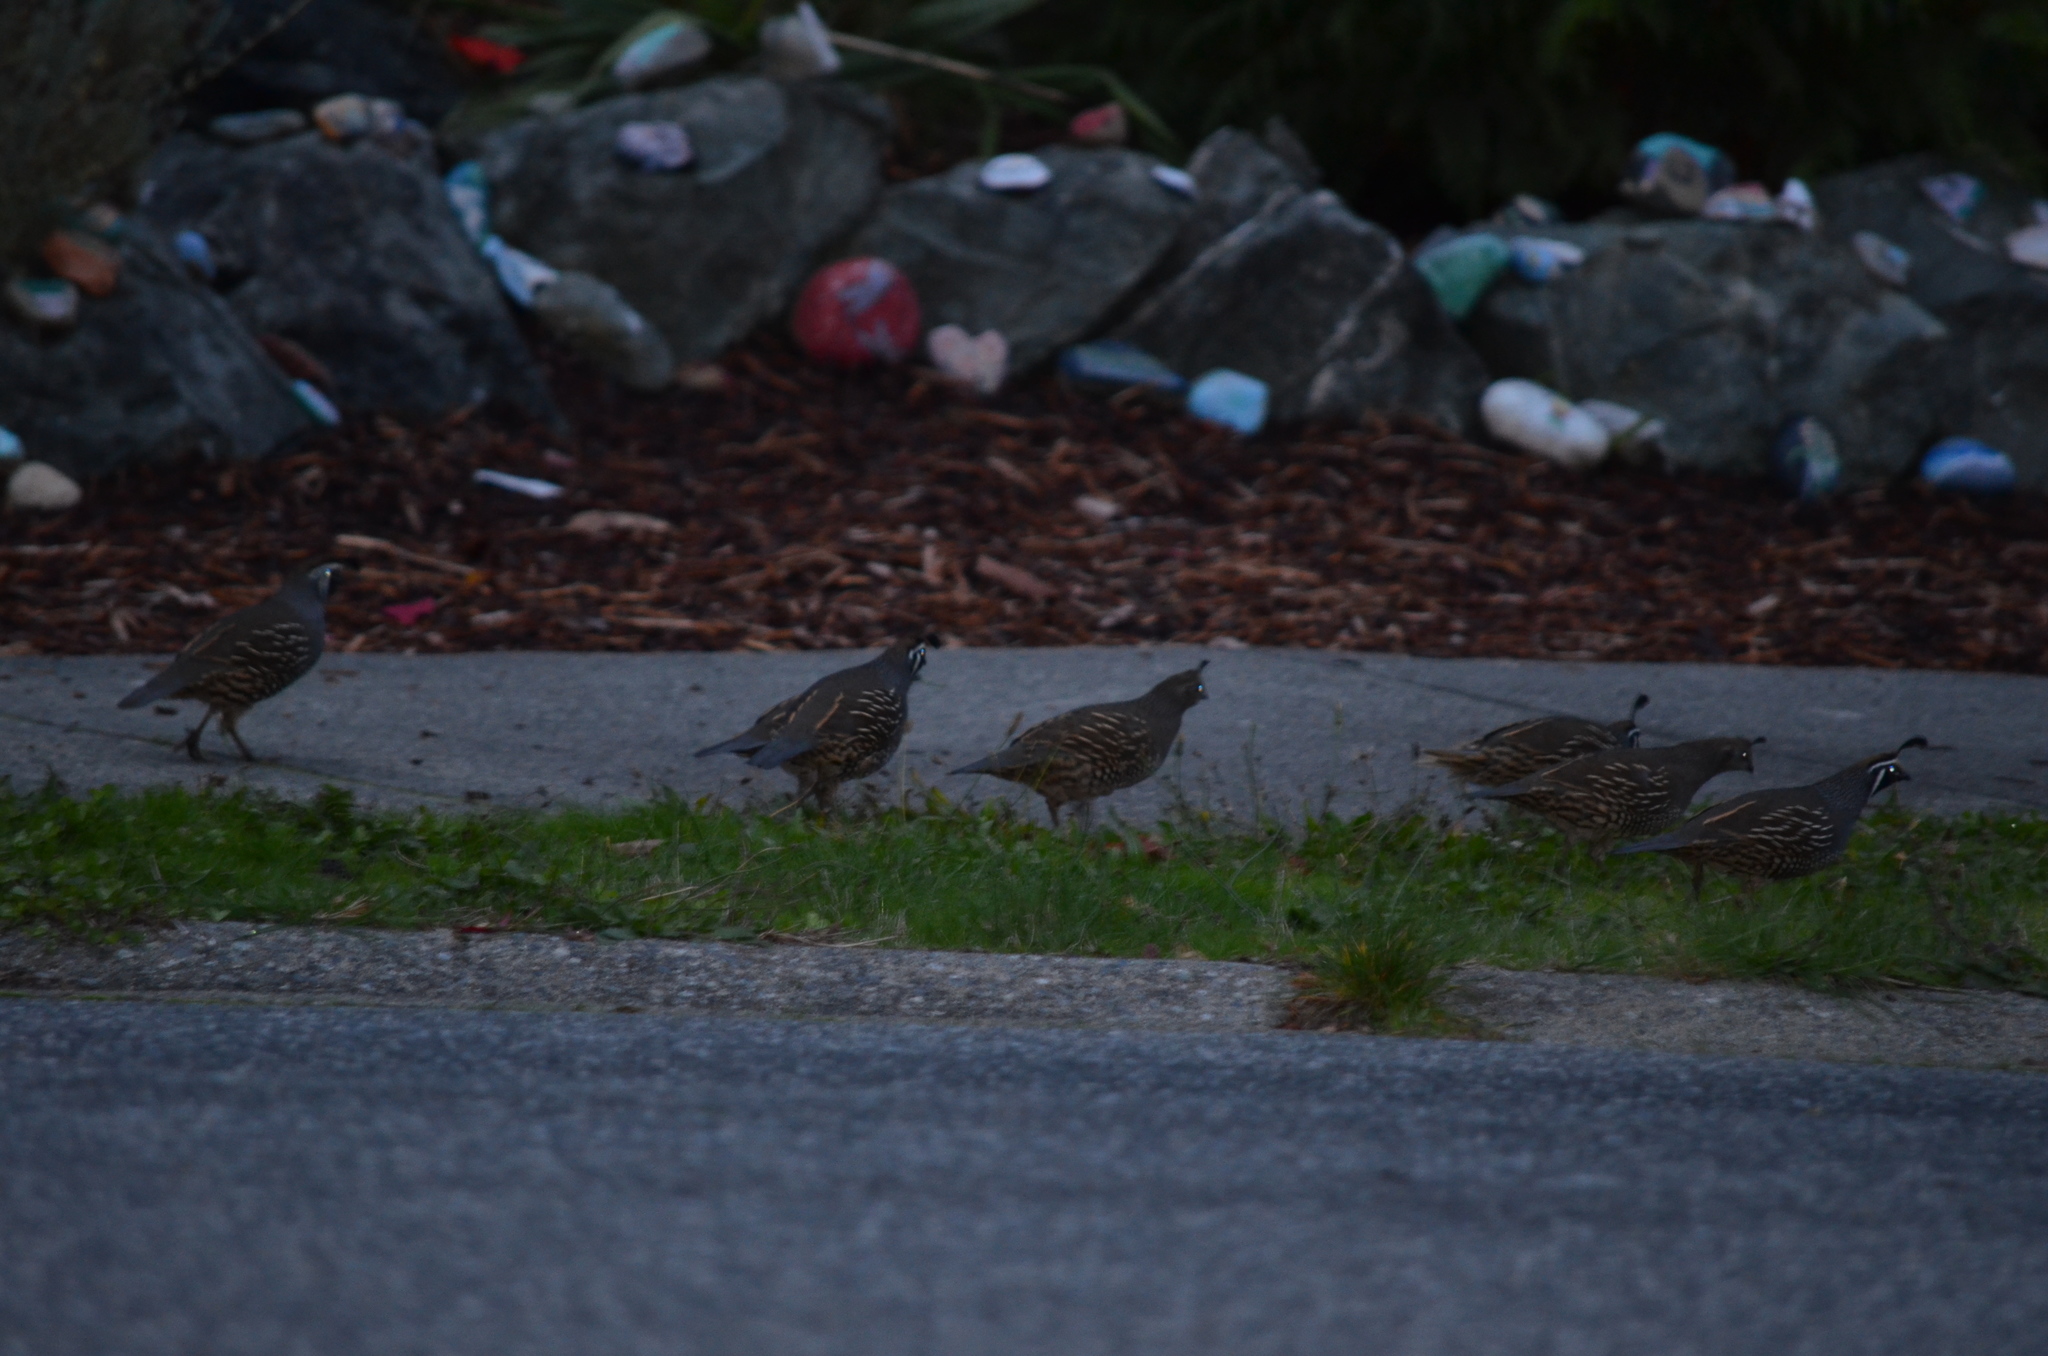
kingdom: Animalia
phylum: Chordata
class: Aves
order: Galliformes
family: Odontophoridae
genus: Callipepla
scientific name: Callipepla californica
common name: California quail
